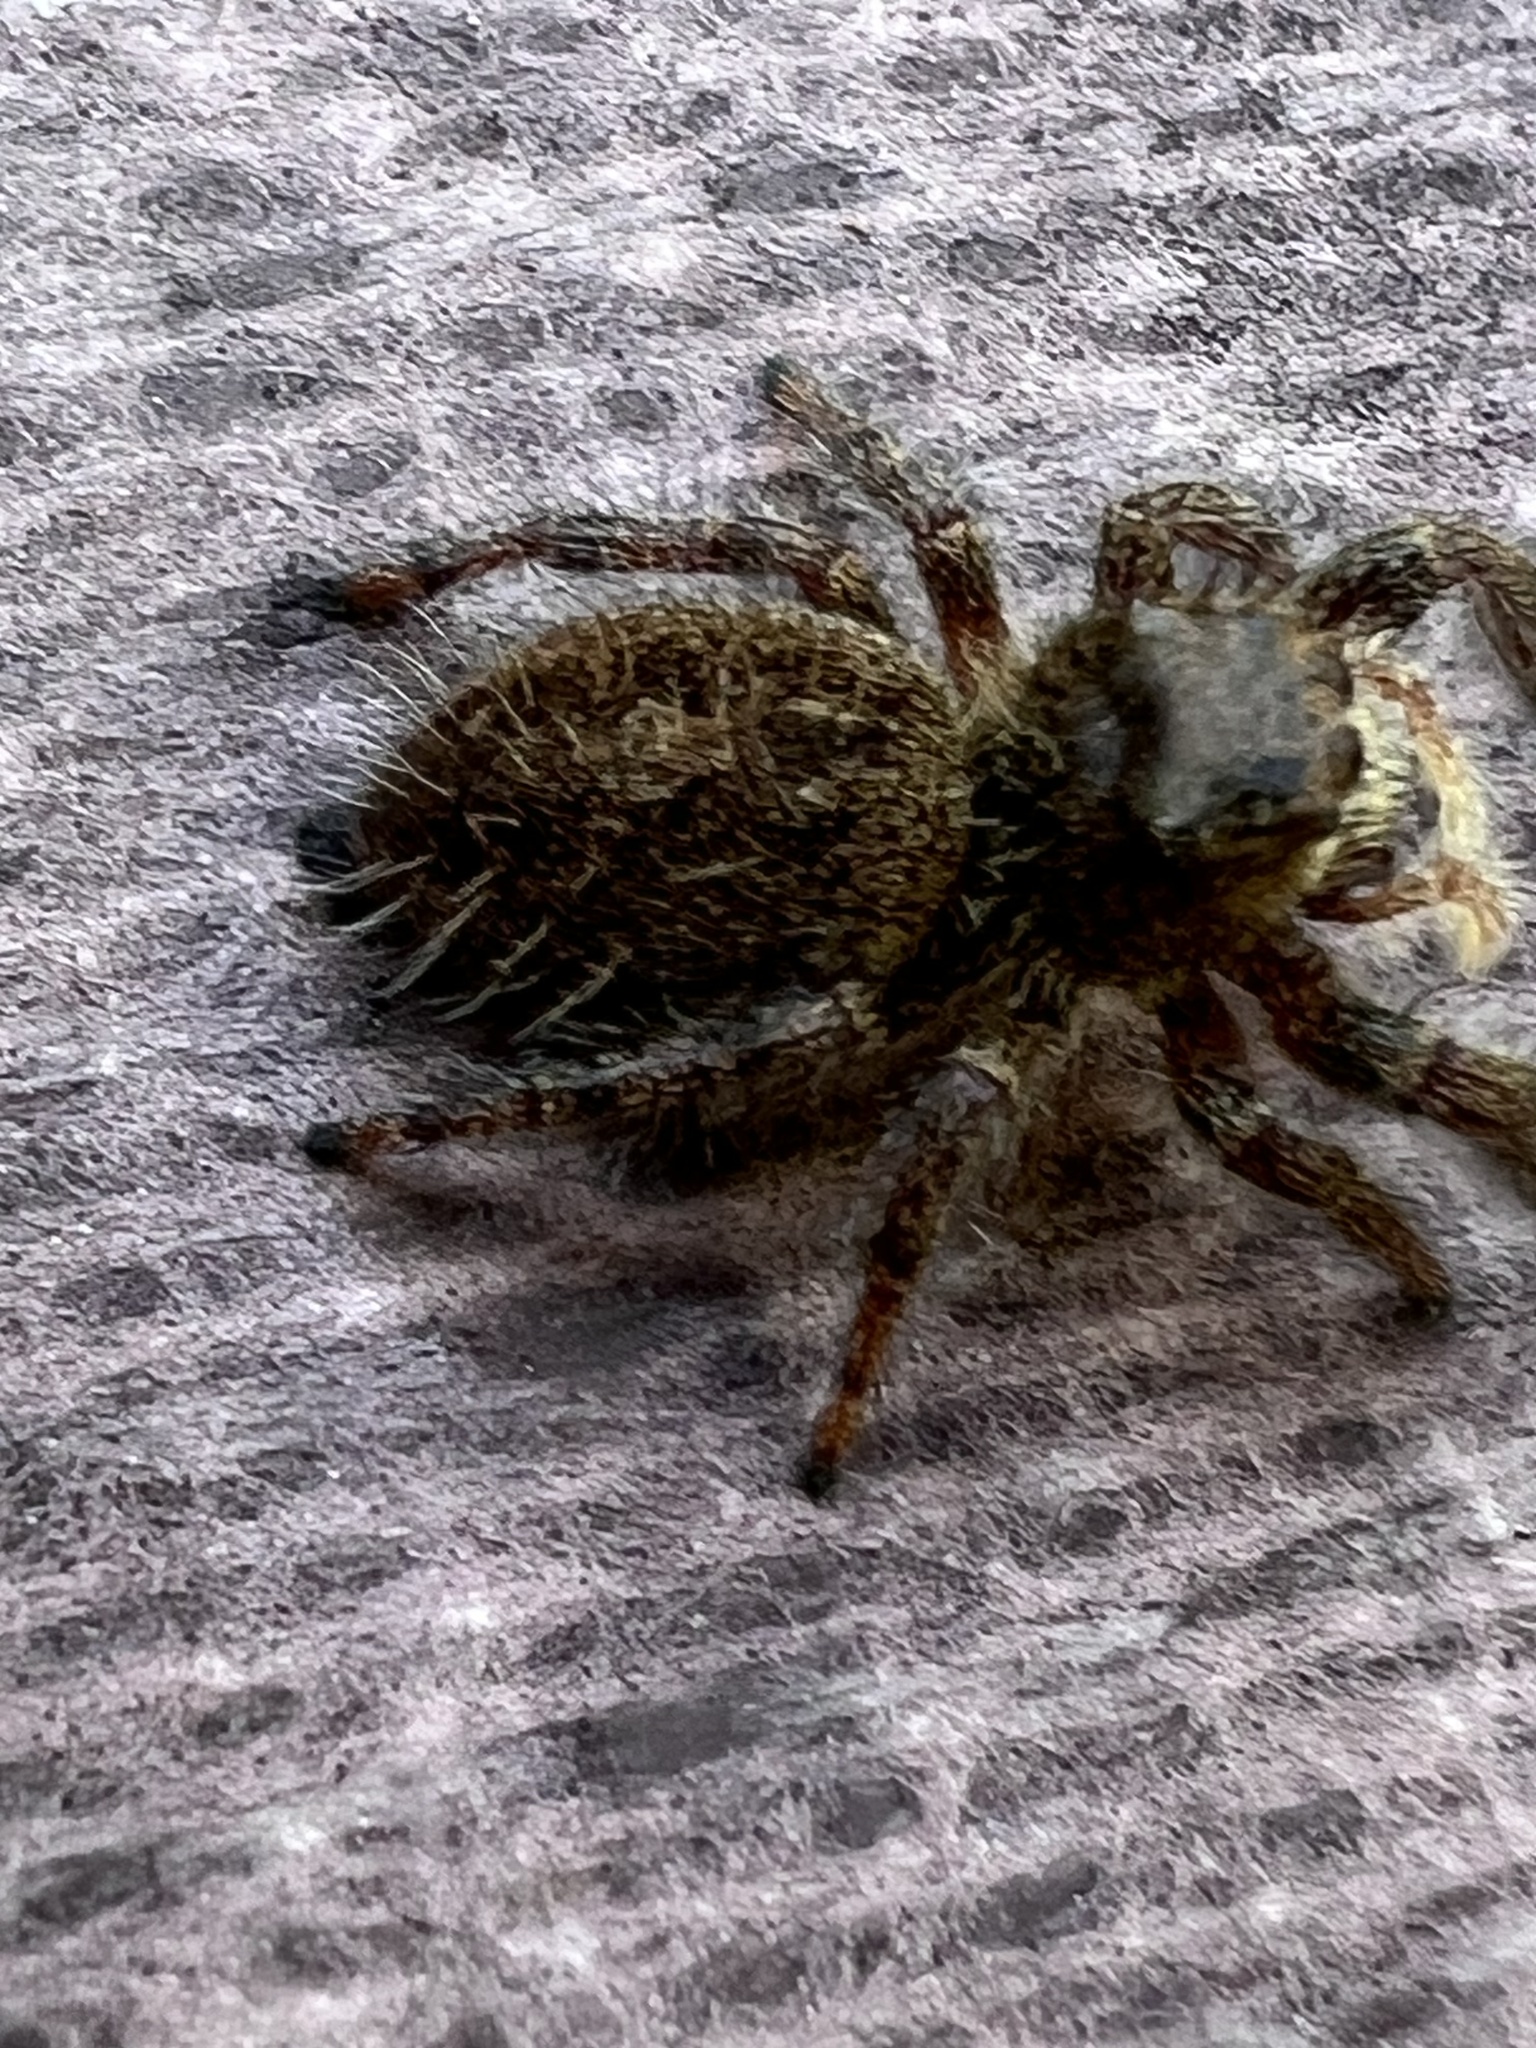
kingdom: Animalia
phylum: Arthropoda
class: Arachnida
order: Araneae
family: Salticidae
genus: Phidippus
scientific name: Phidippus princeps
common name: Grayish jumping spider
